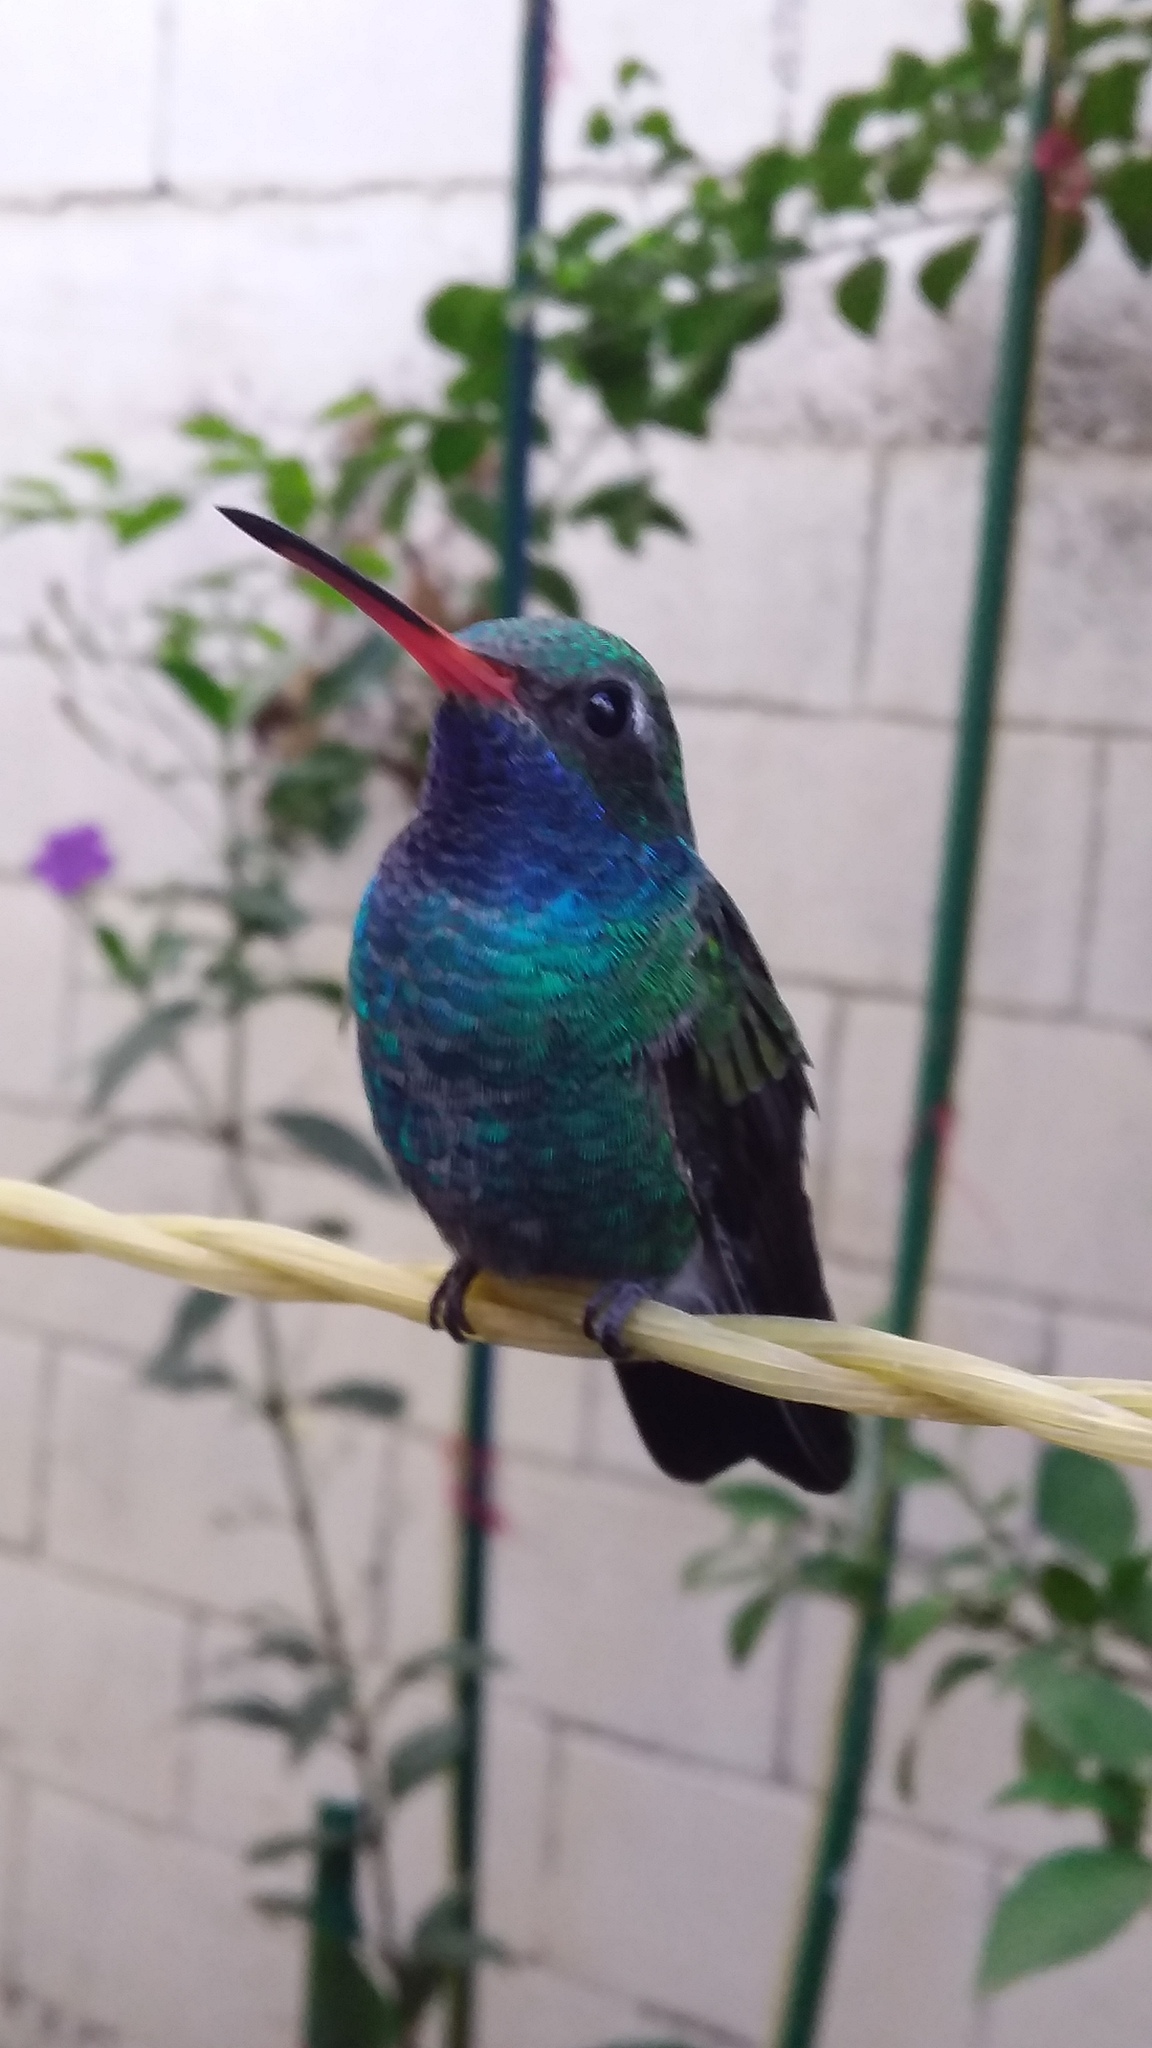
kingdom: Animalia
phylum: Chordata
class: Aves
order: Apodiformes
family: Trochilidae
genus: Cynanthus
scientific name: Cynanthus latirostris
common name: Broad-billed hummingbird
